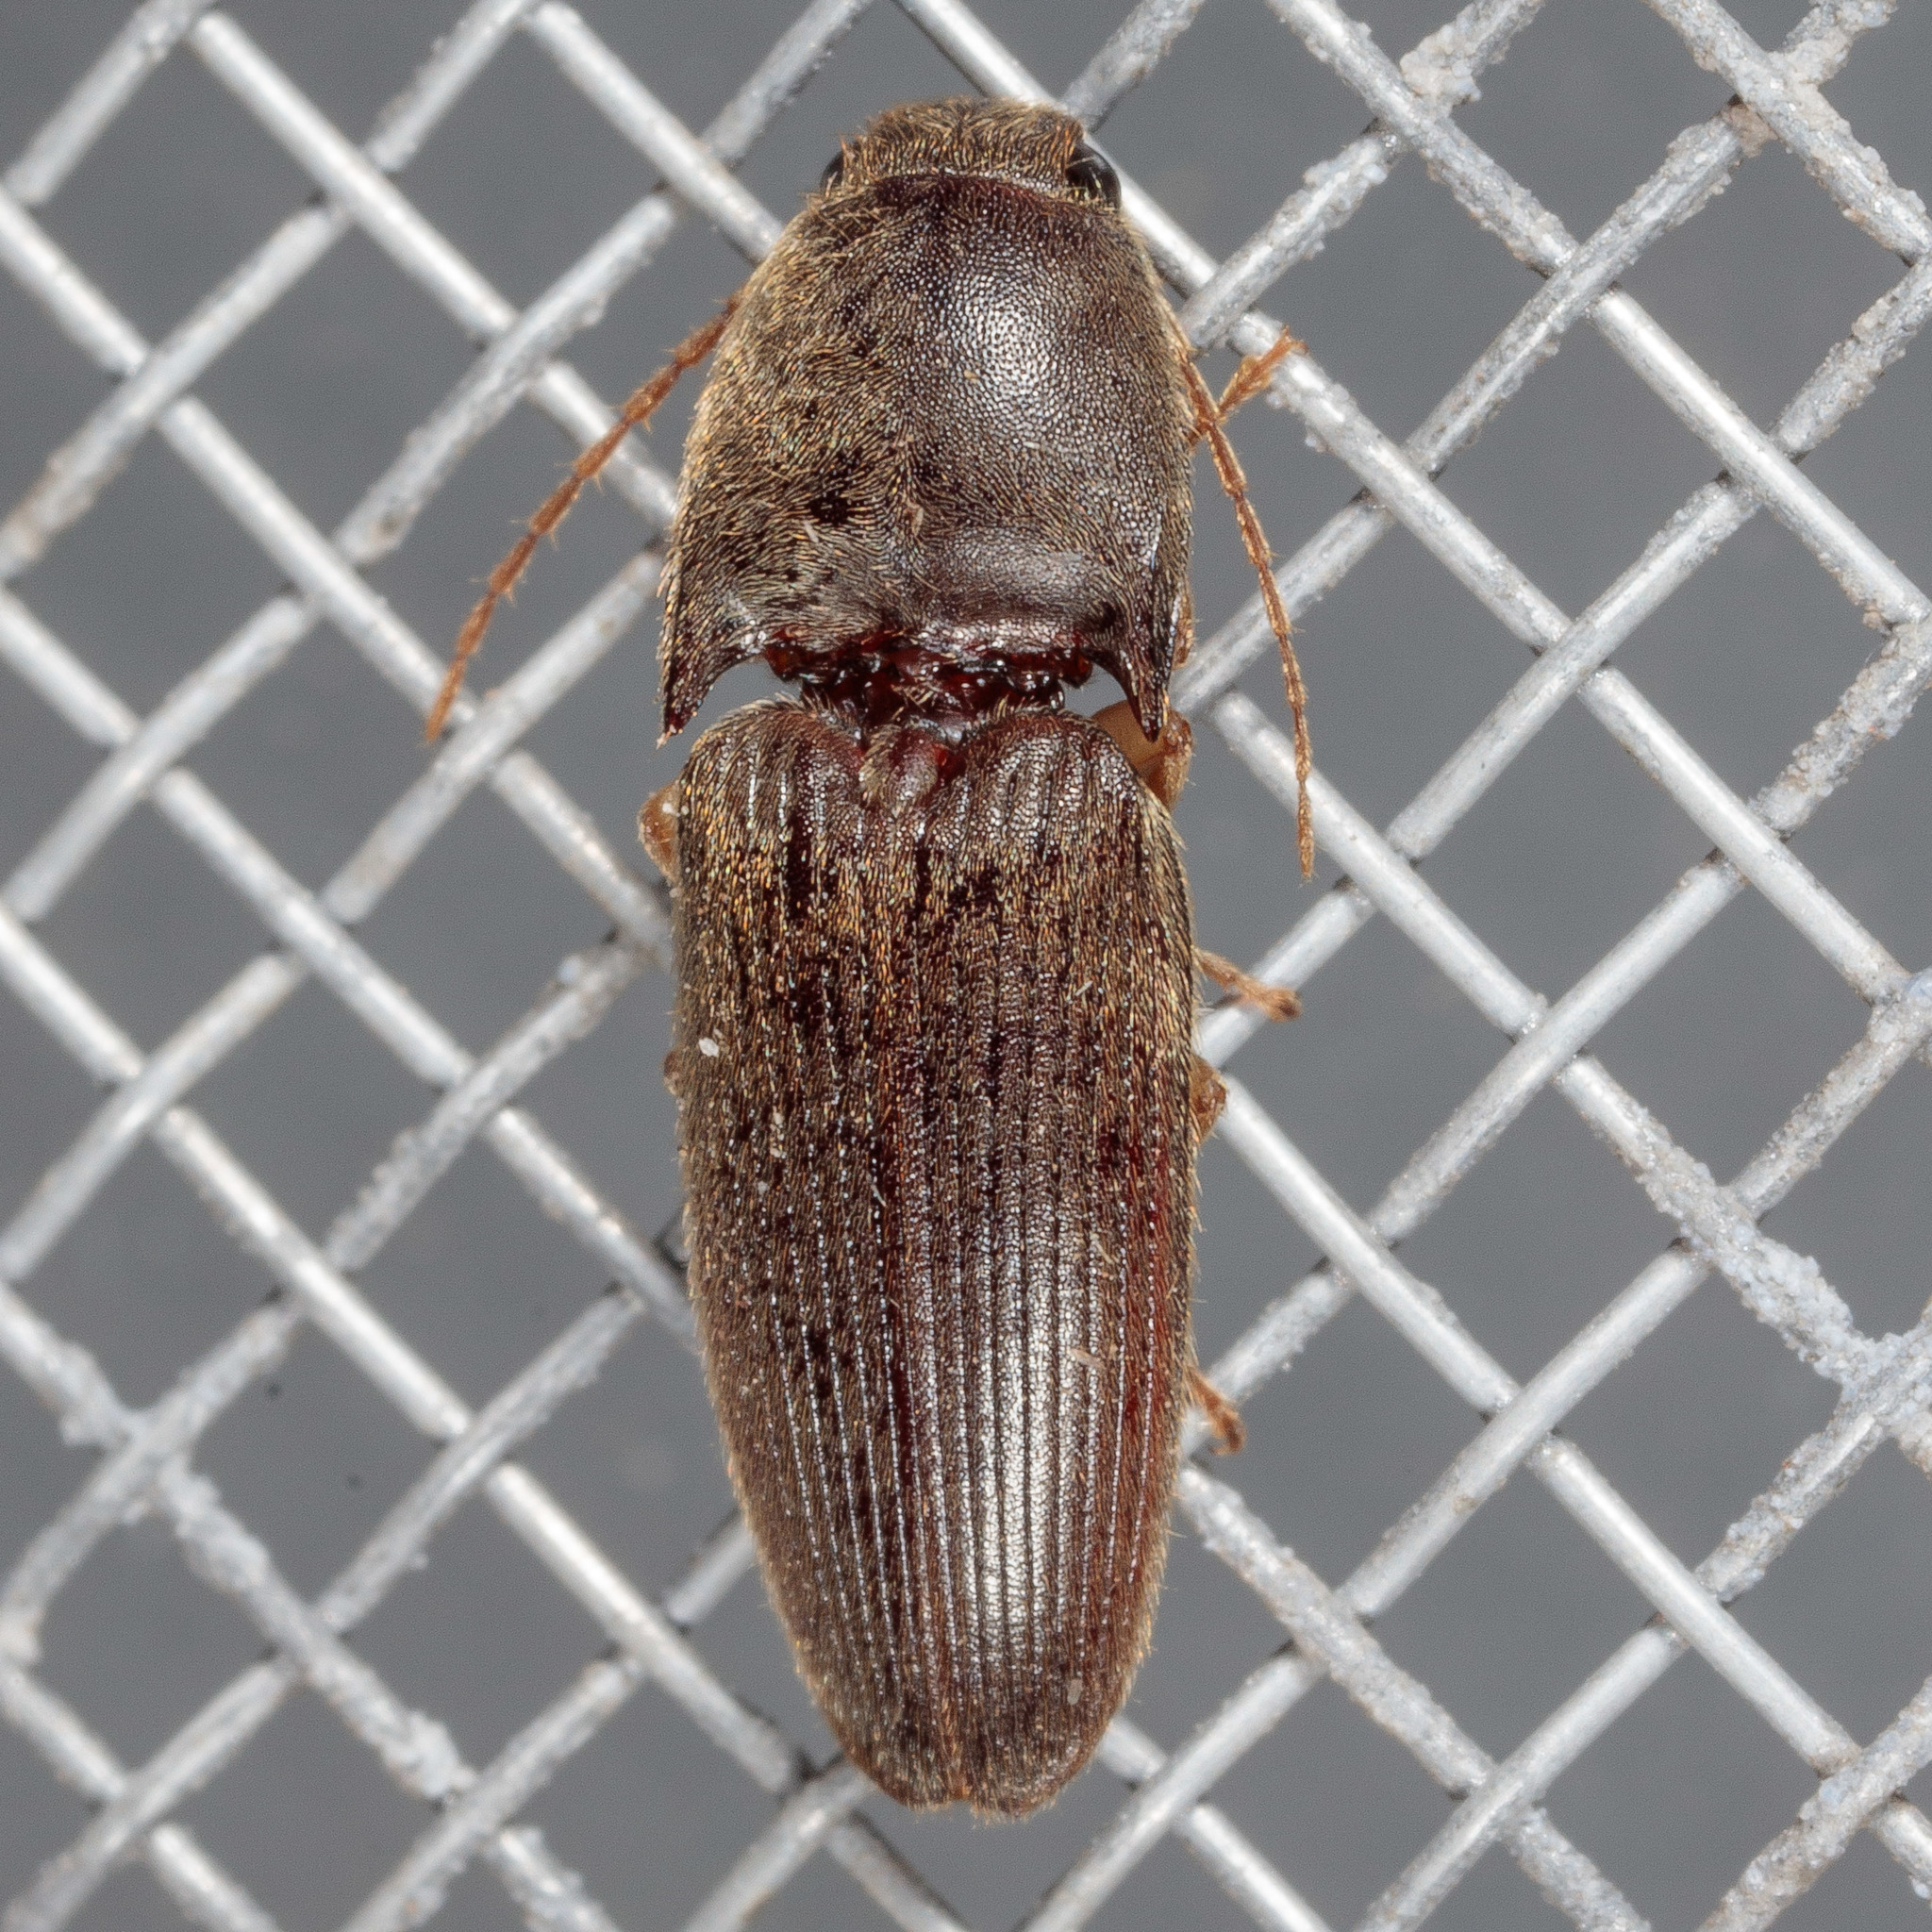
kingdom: Animalia
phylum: Arthropoda
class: Insecta
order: Coleoptera
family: Elateridae
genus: Conoderus
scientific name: Conoderus exsul
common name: Click beetle
